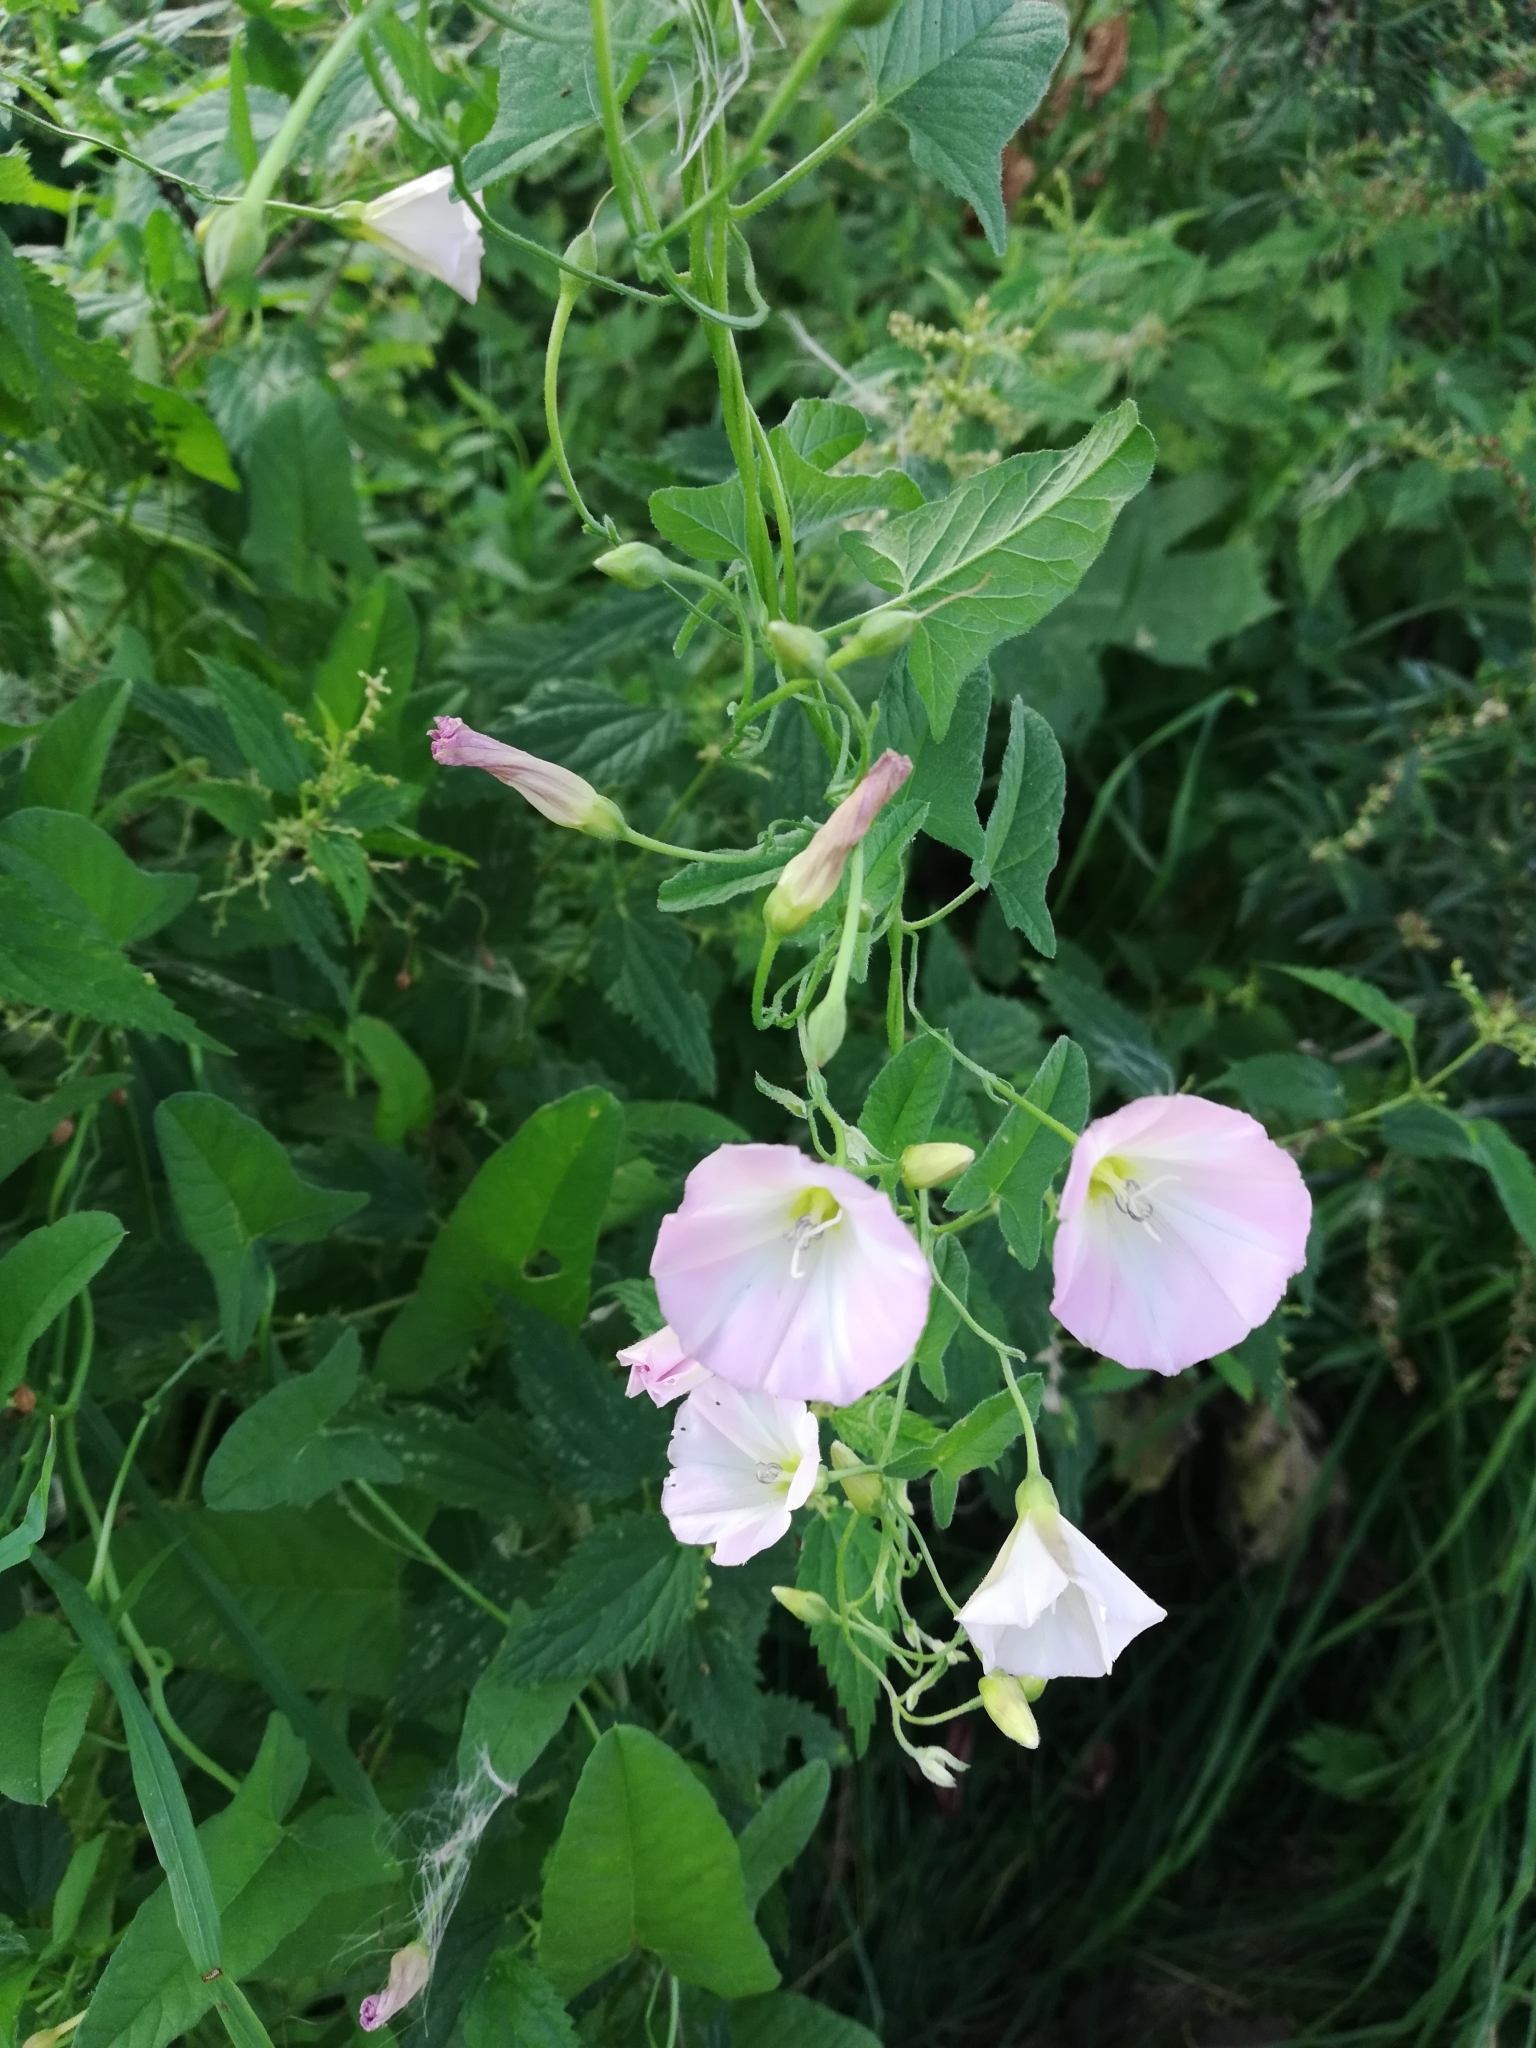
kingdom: Plantae
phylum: Tracheophyta
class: Magnoliopsida
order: Solanales
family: Convolvulaceae
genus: Convolvulus
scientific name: Convolvulus arvensis
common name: Field bindweed
